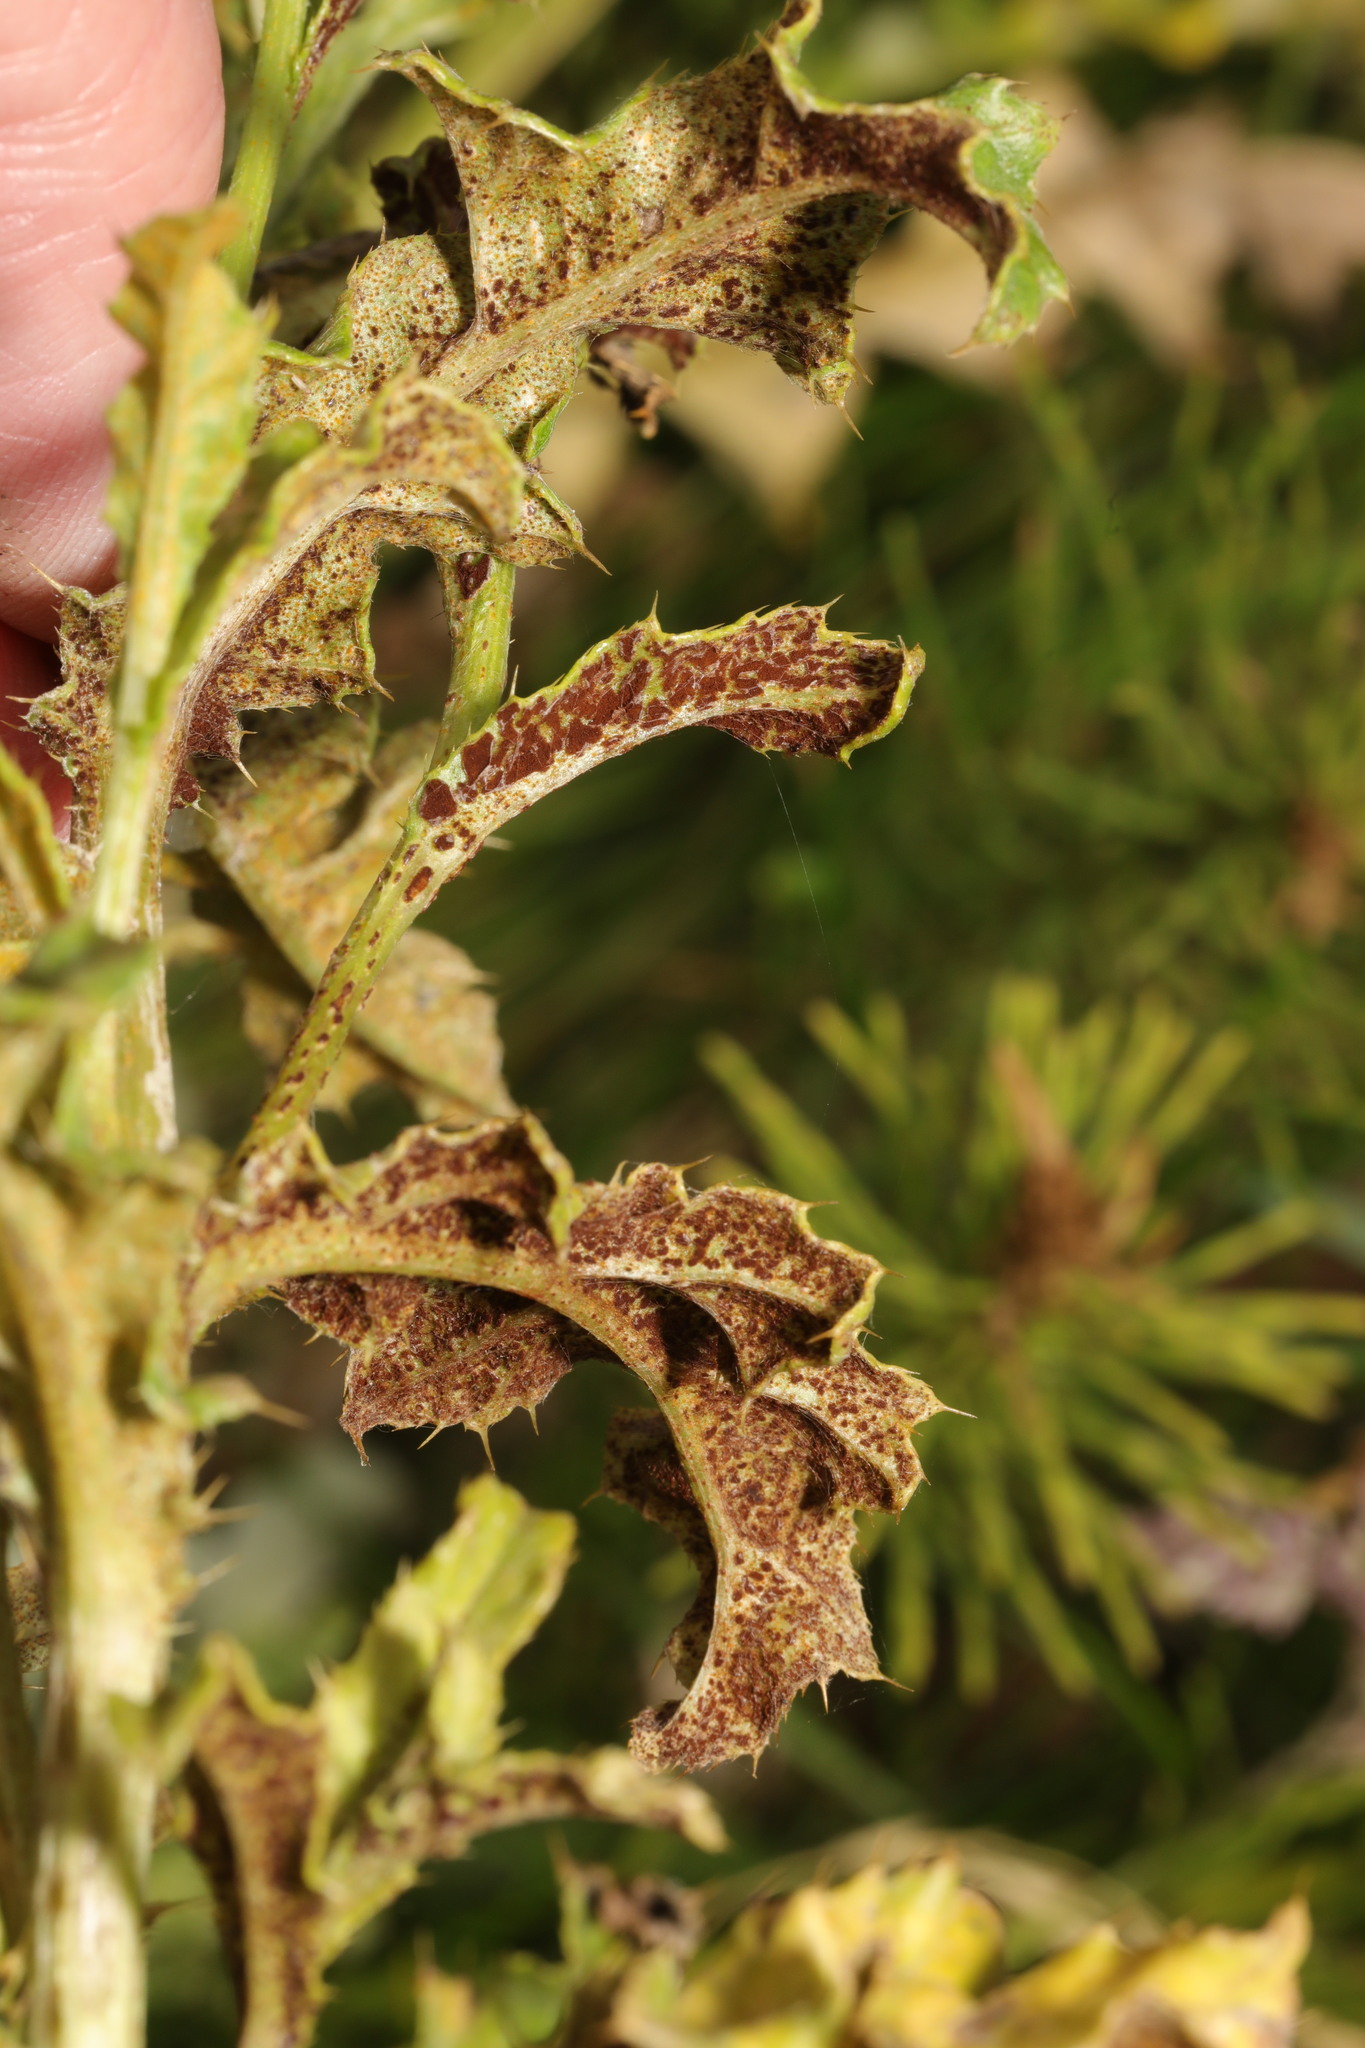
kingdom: Fungi
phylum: Basidiomycota
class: Pucciniomycetes
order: Pucciniales
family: Pucciniaceae
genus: Puccinia
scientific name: Puccinia suaveolens
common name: Thistle rust
